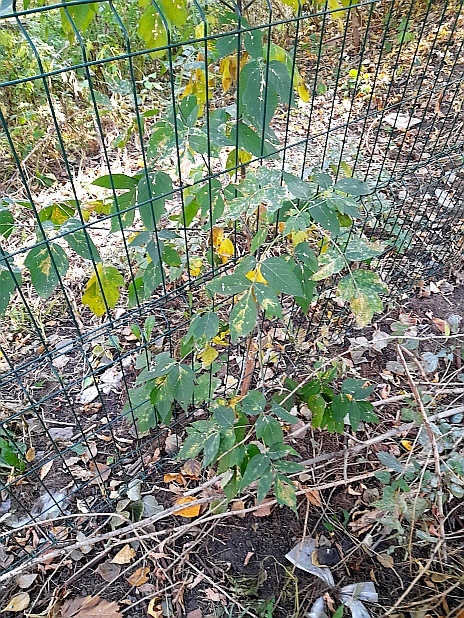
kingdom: Plantae
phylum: Tracheophyta
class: Magnoliopsida
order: Sapindales
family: Sapindaceae
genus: Acer
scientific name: Acer negundo
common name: Ashleaf maple
